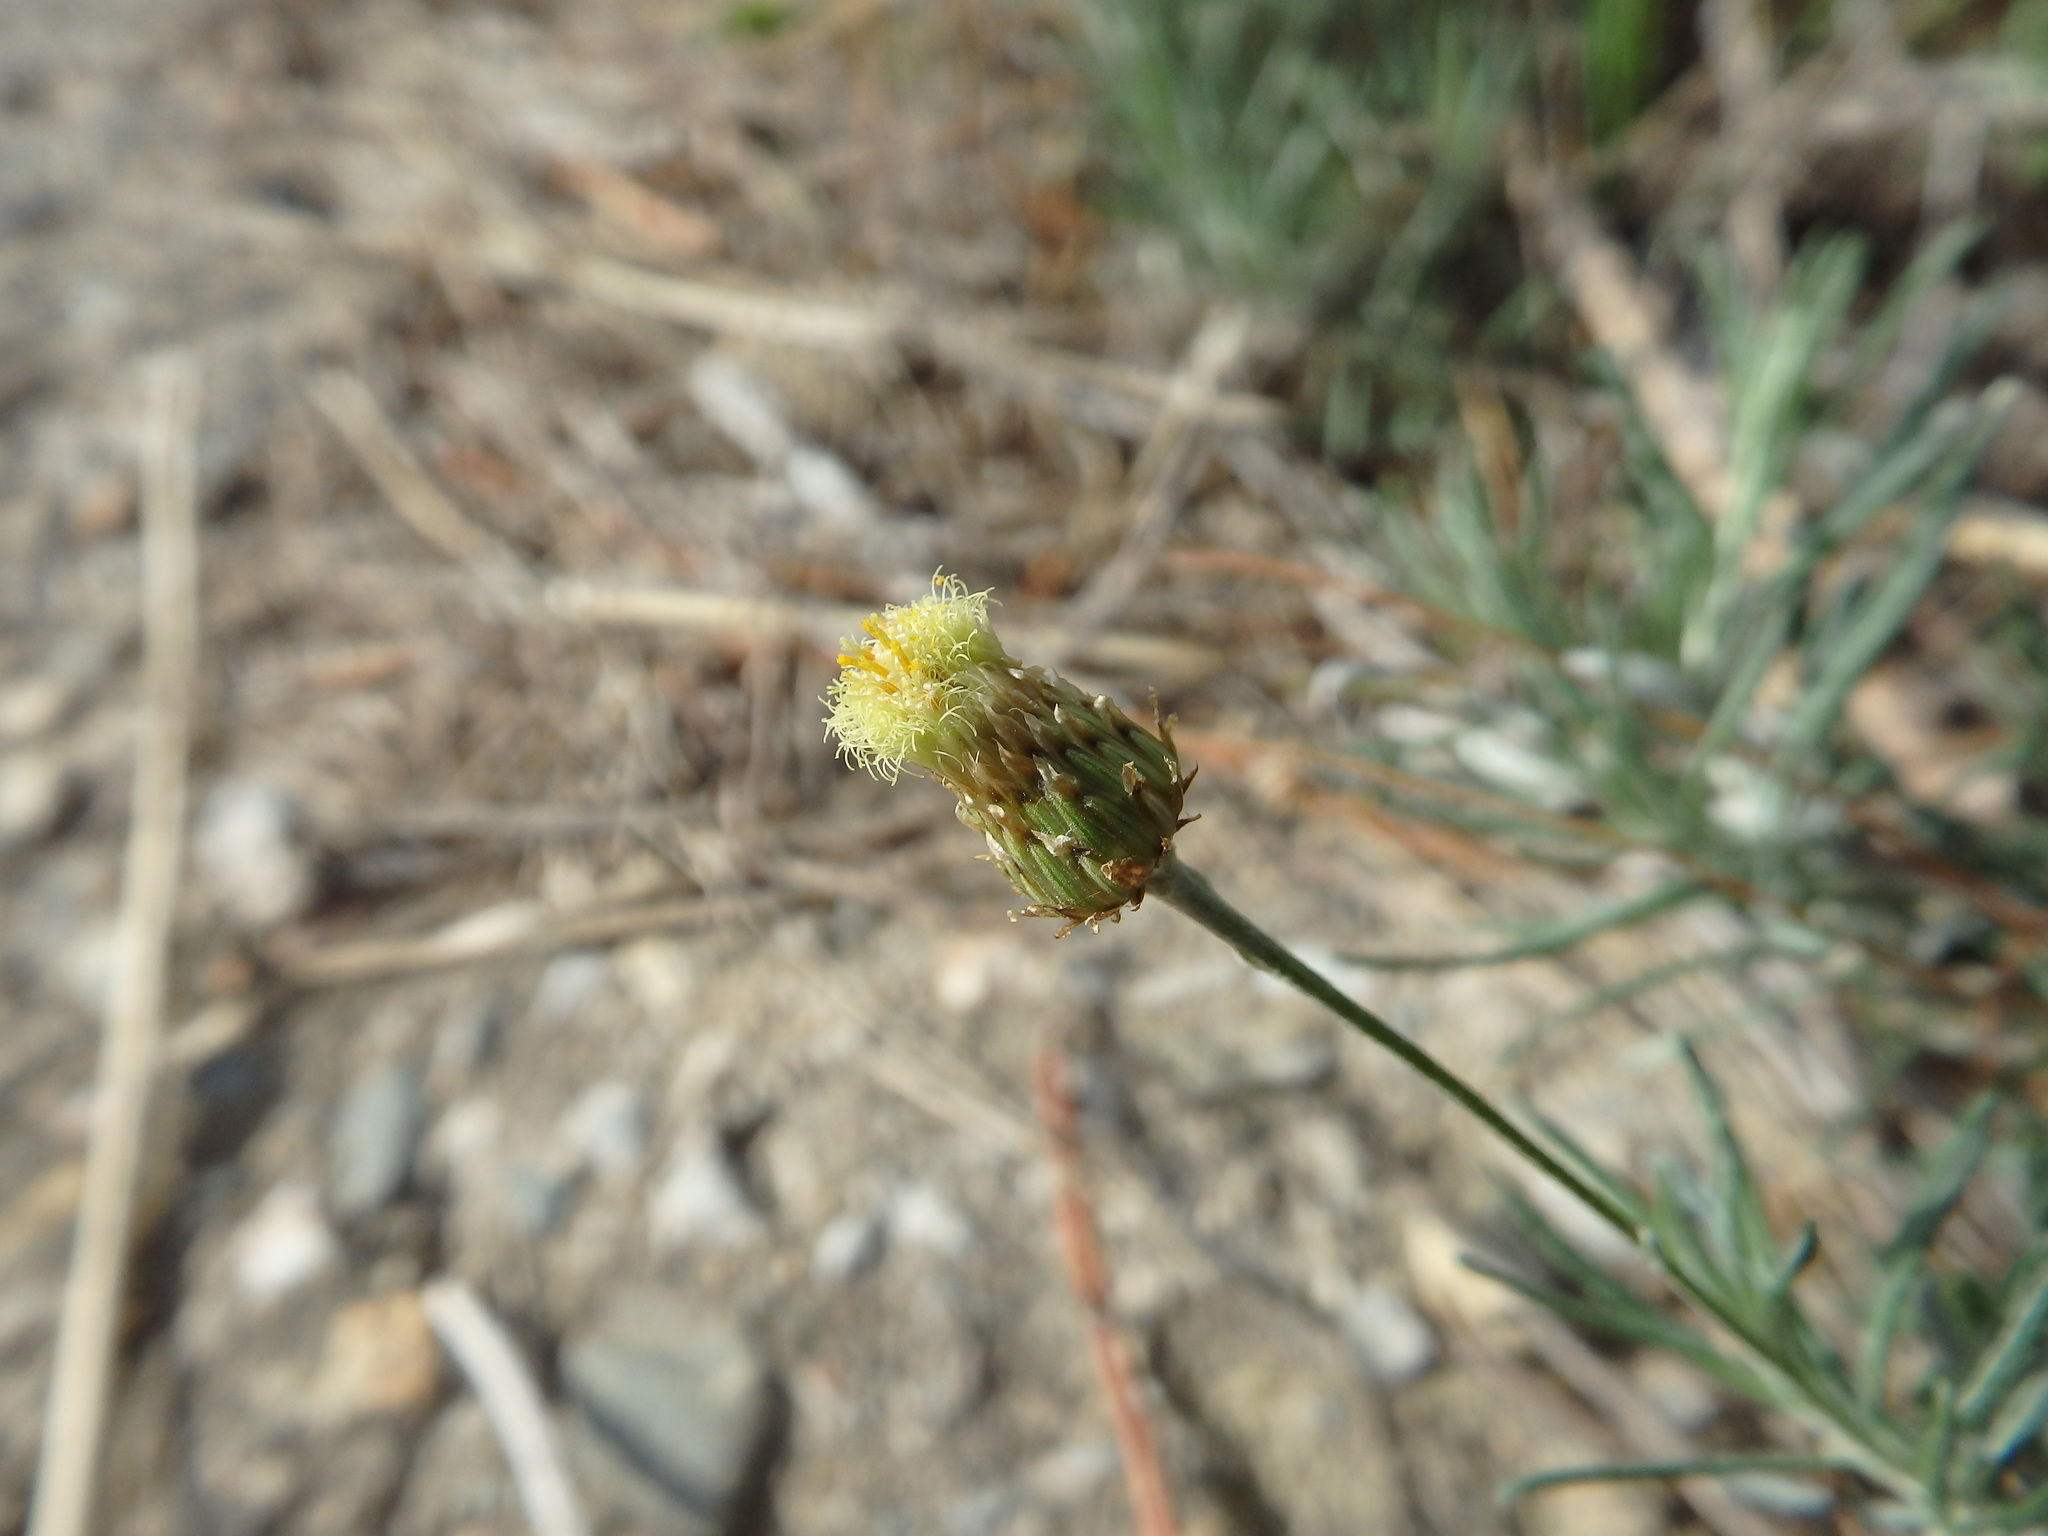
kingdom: Plantae
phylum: Tracheophyta
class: Magnoliopsida
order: Asterales
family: Asteraceae
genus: Phagnalon
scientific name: Phagnalon saxatile
